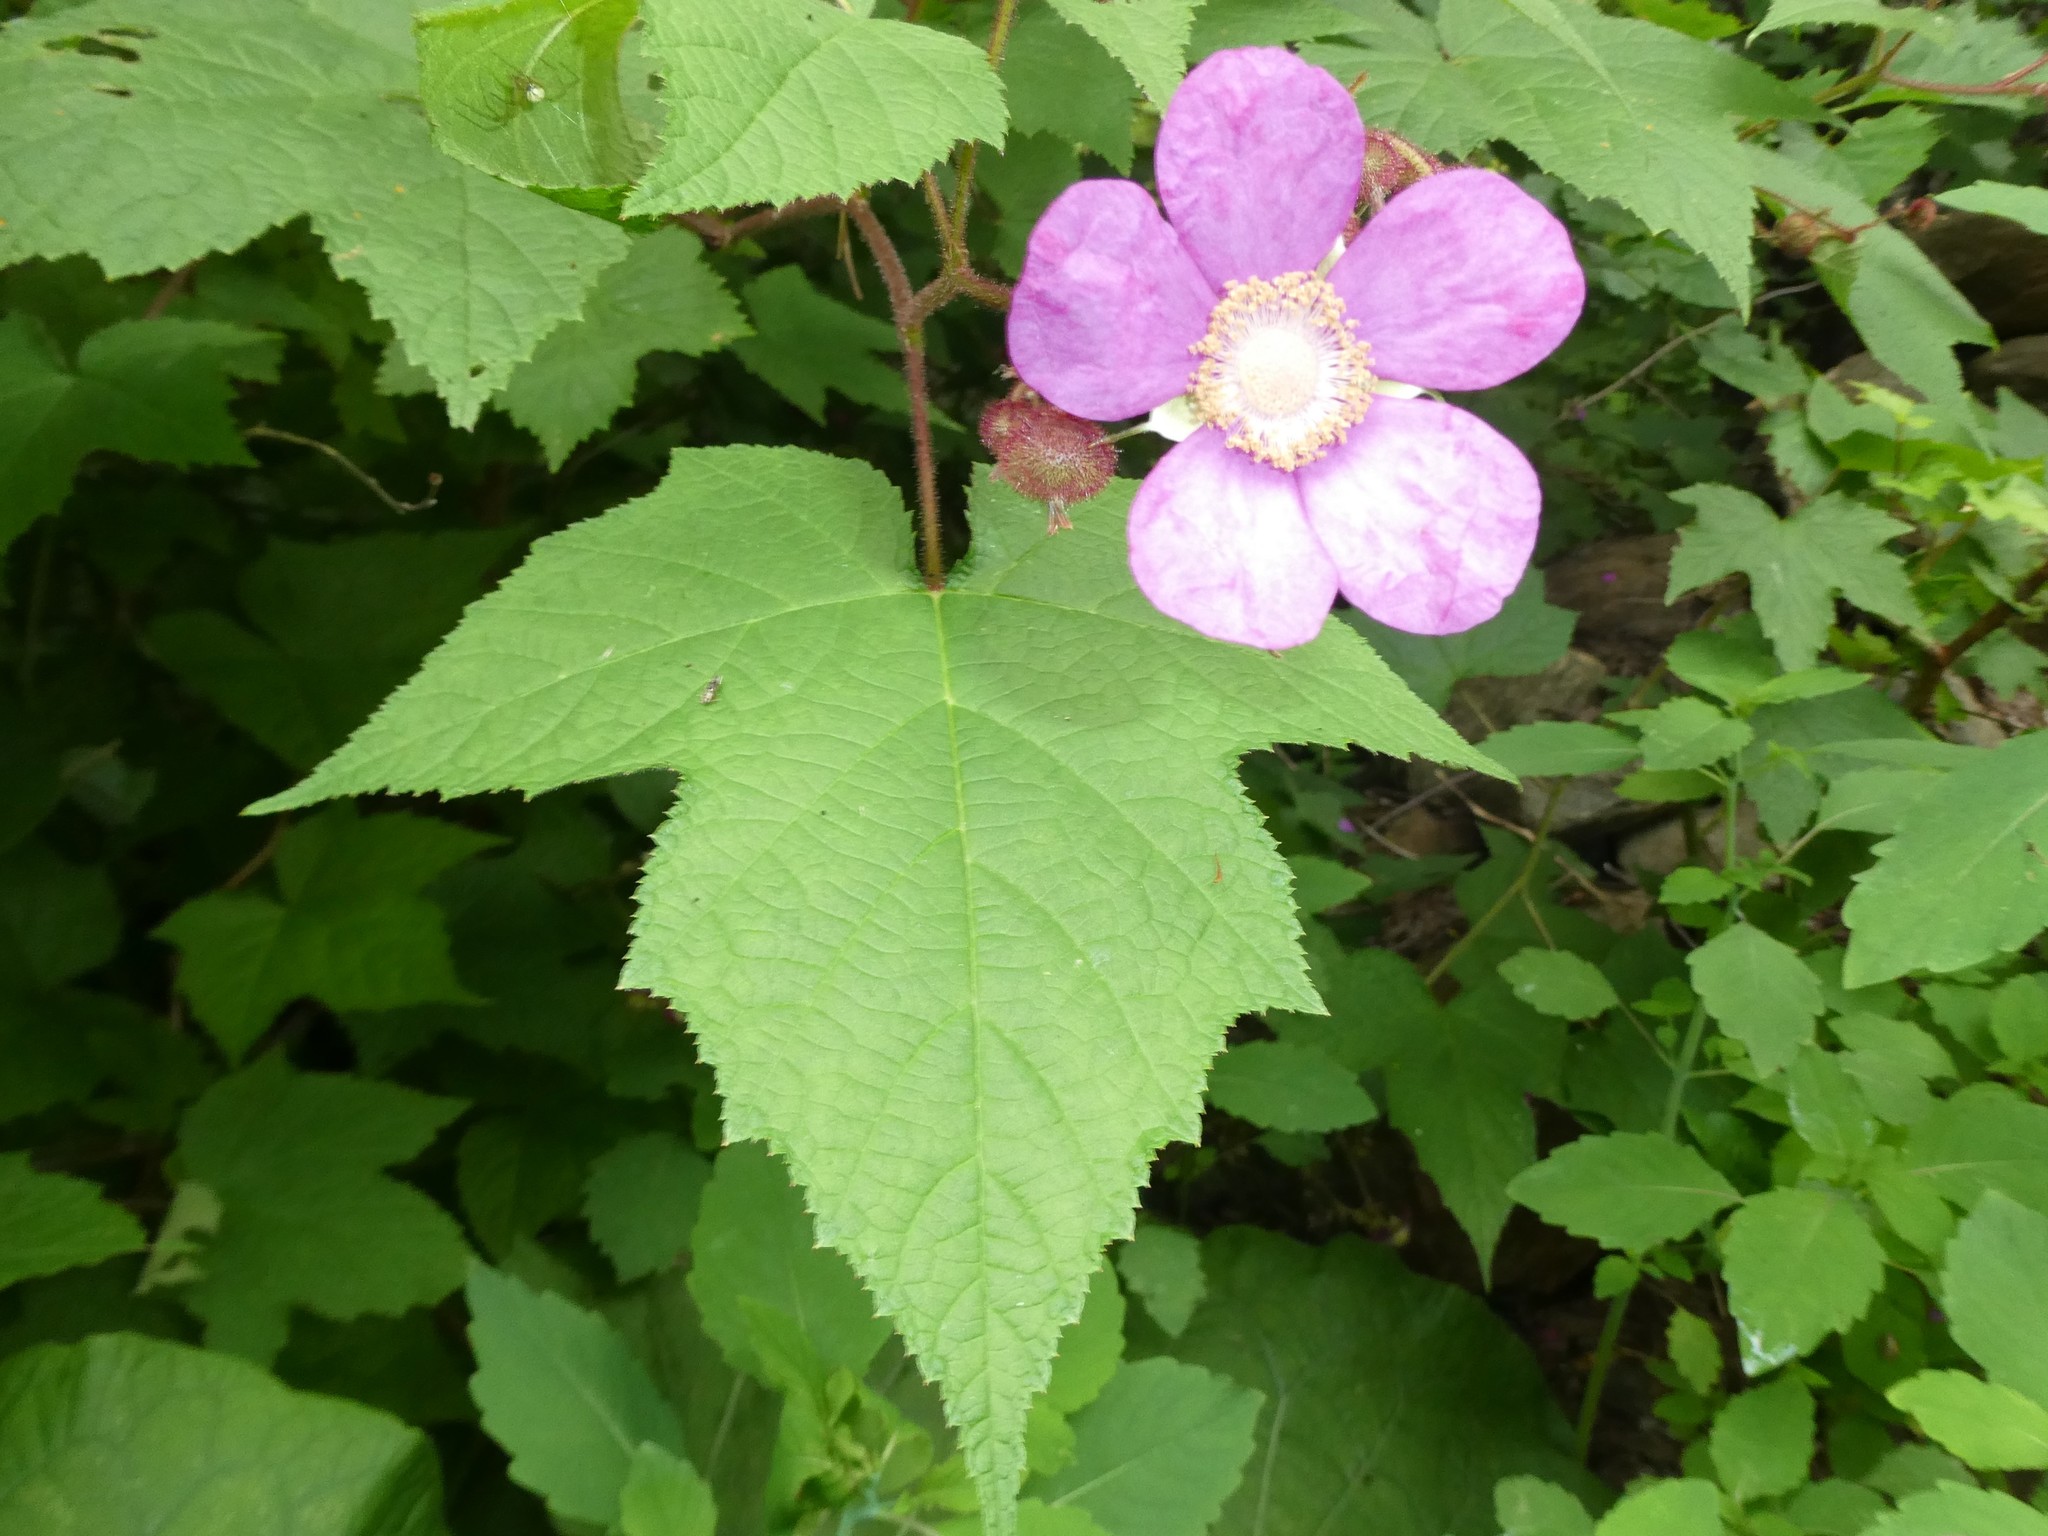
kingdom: Plantae
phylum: Tracheophyta
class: Magnoliopsida
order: Rosales
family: Rosaceae
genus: Rubus
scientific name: Rubus odoratus
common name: Purple-flowered raspberry
